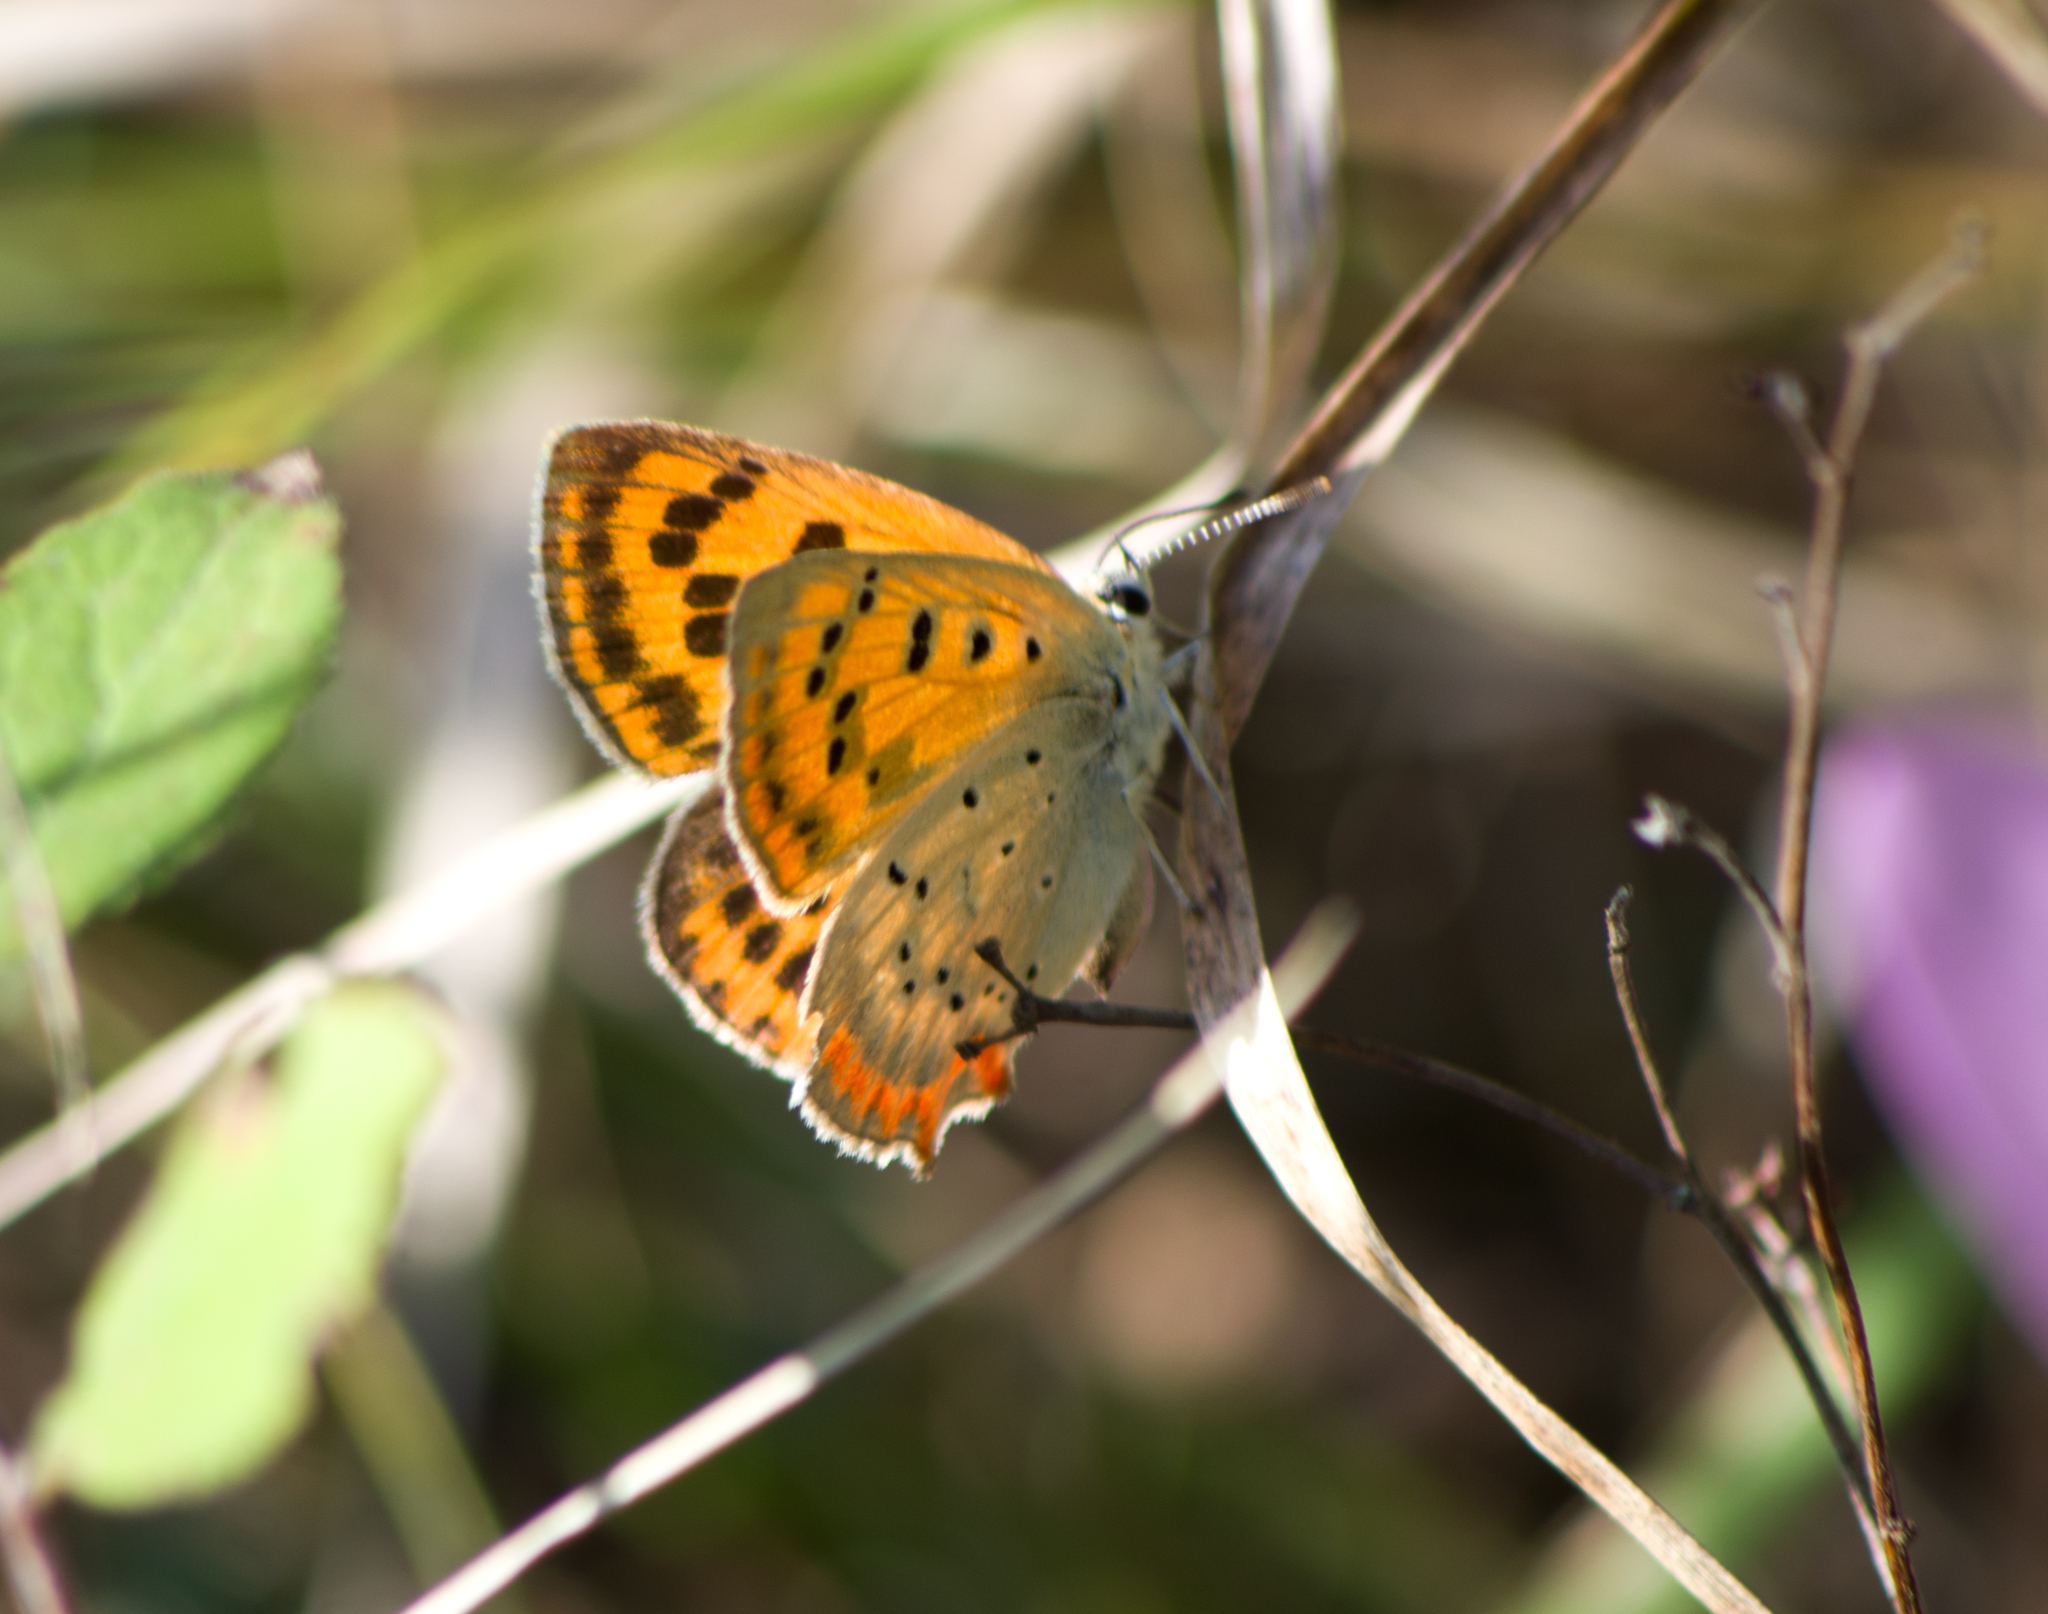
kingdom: Animalia
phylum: Arthropoda
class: Insecta
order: Lepidoptera
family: Lycaenidae
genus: Polyommatus
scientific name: Polyommatus ottomanus
